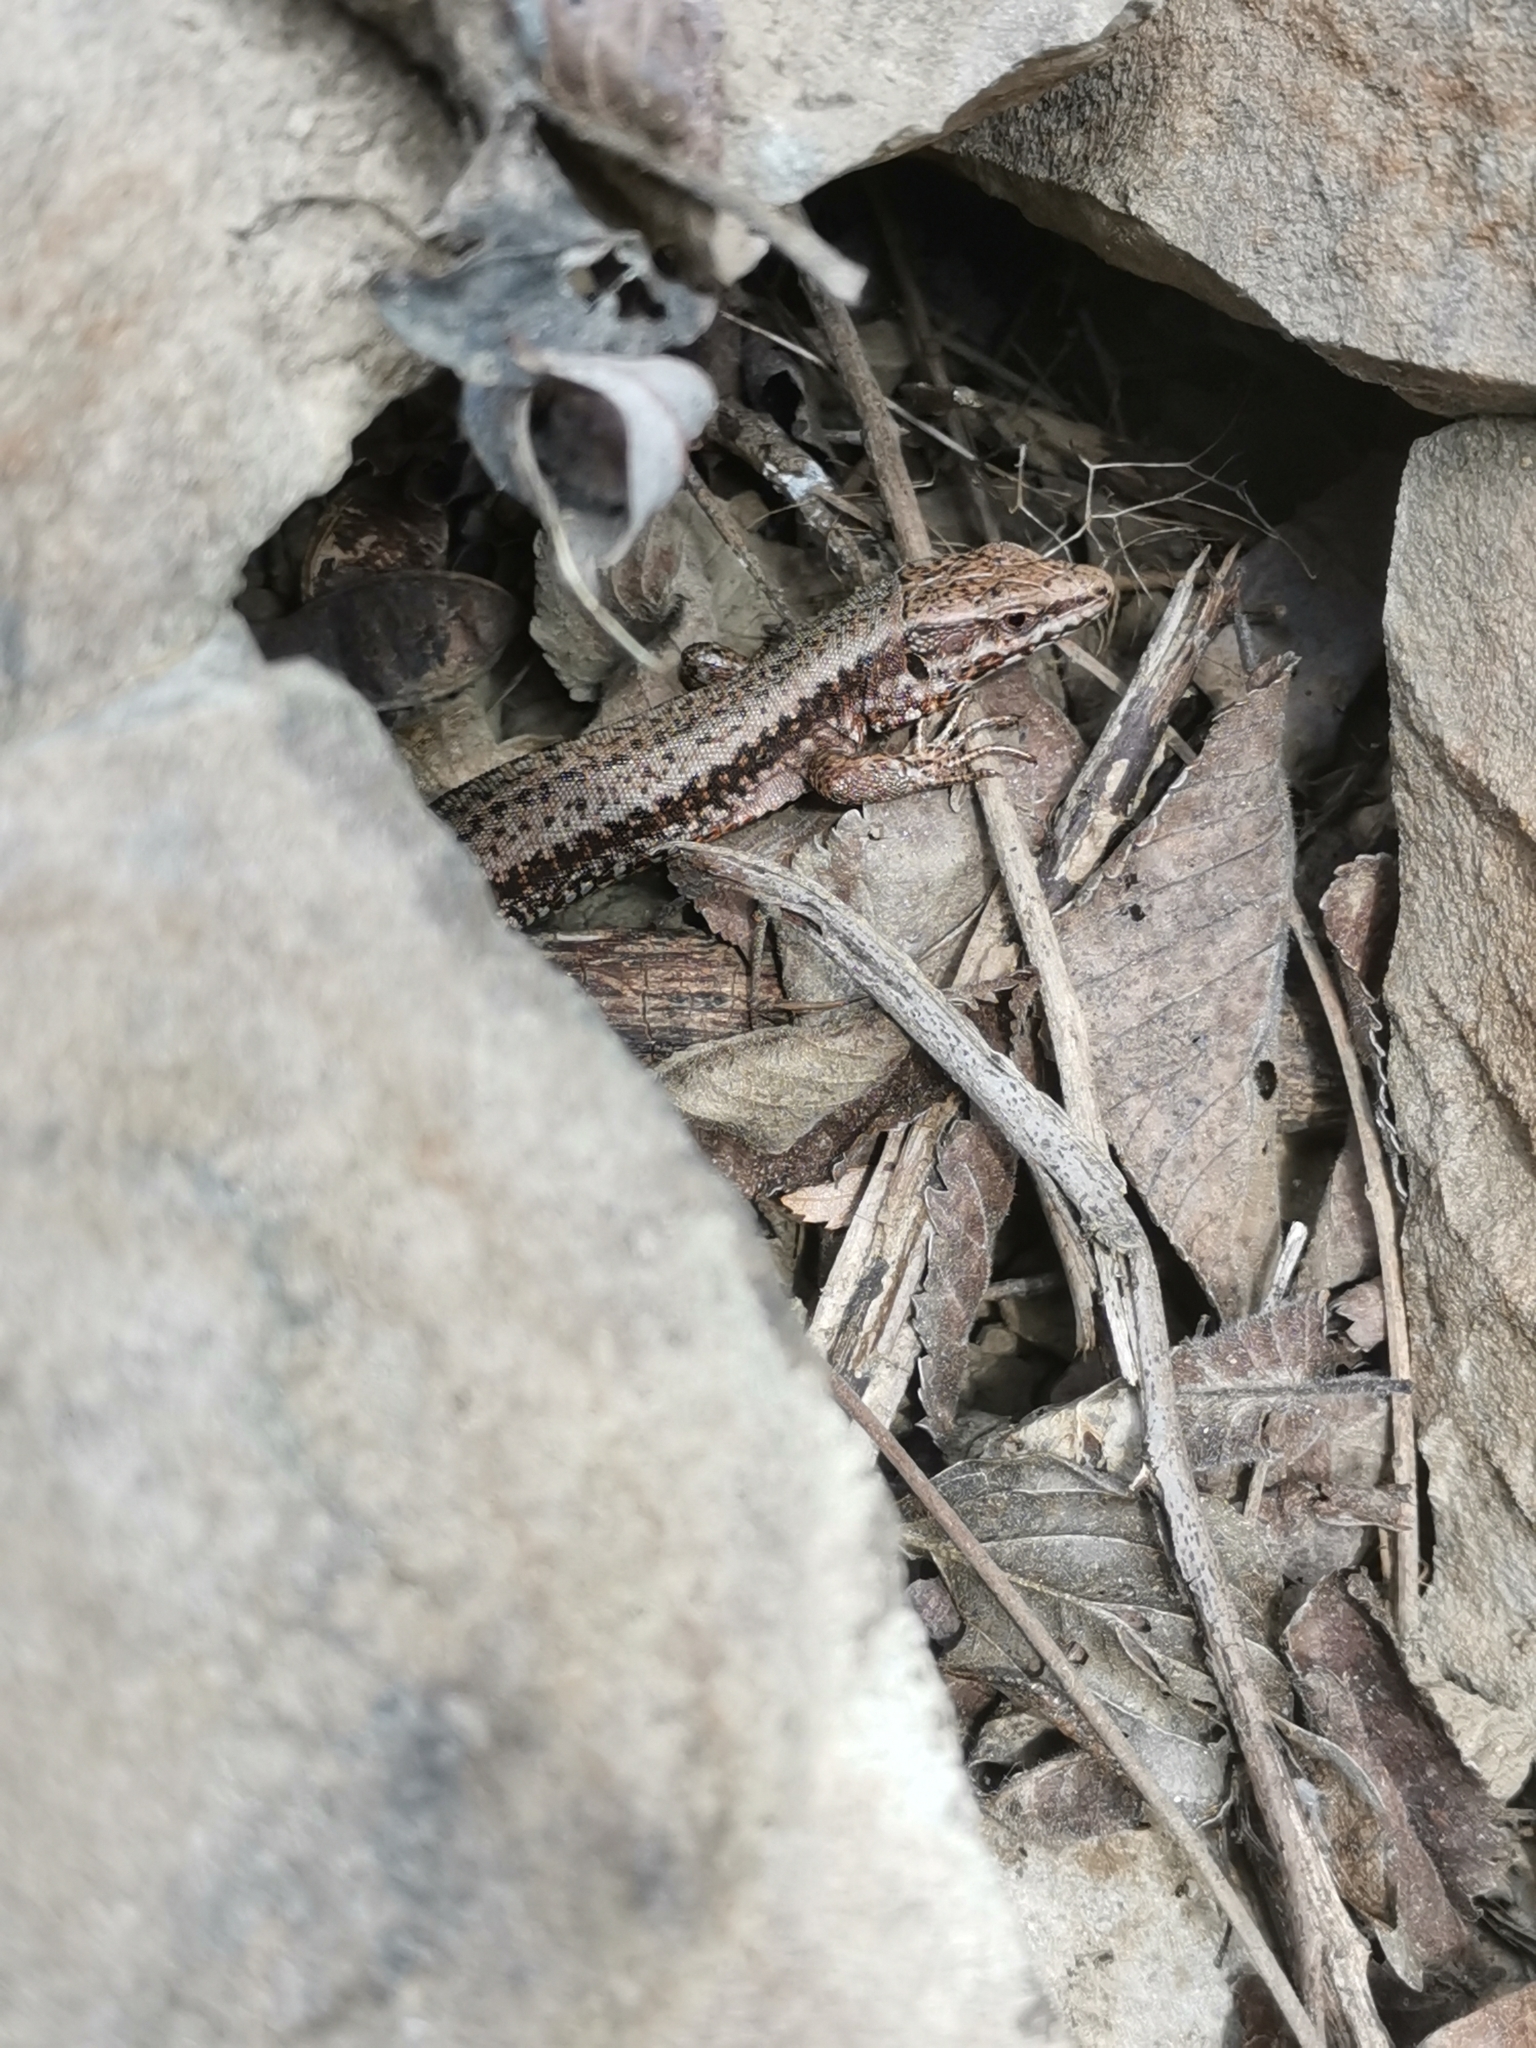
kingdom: Animalia
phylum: Chordata
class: Squamata
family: Lacertidae
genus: Podarcis
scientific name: Podarcis muralis
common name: Common wall lizard
